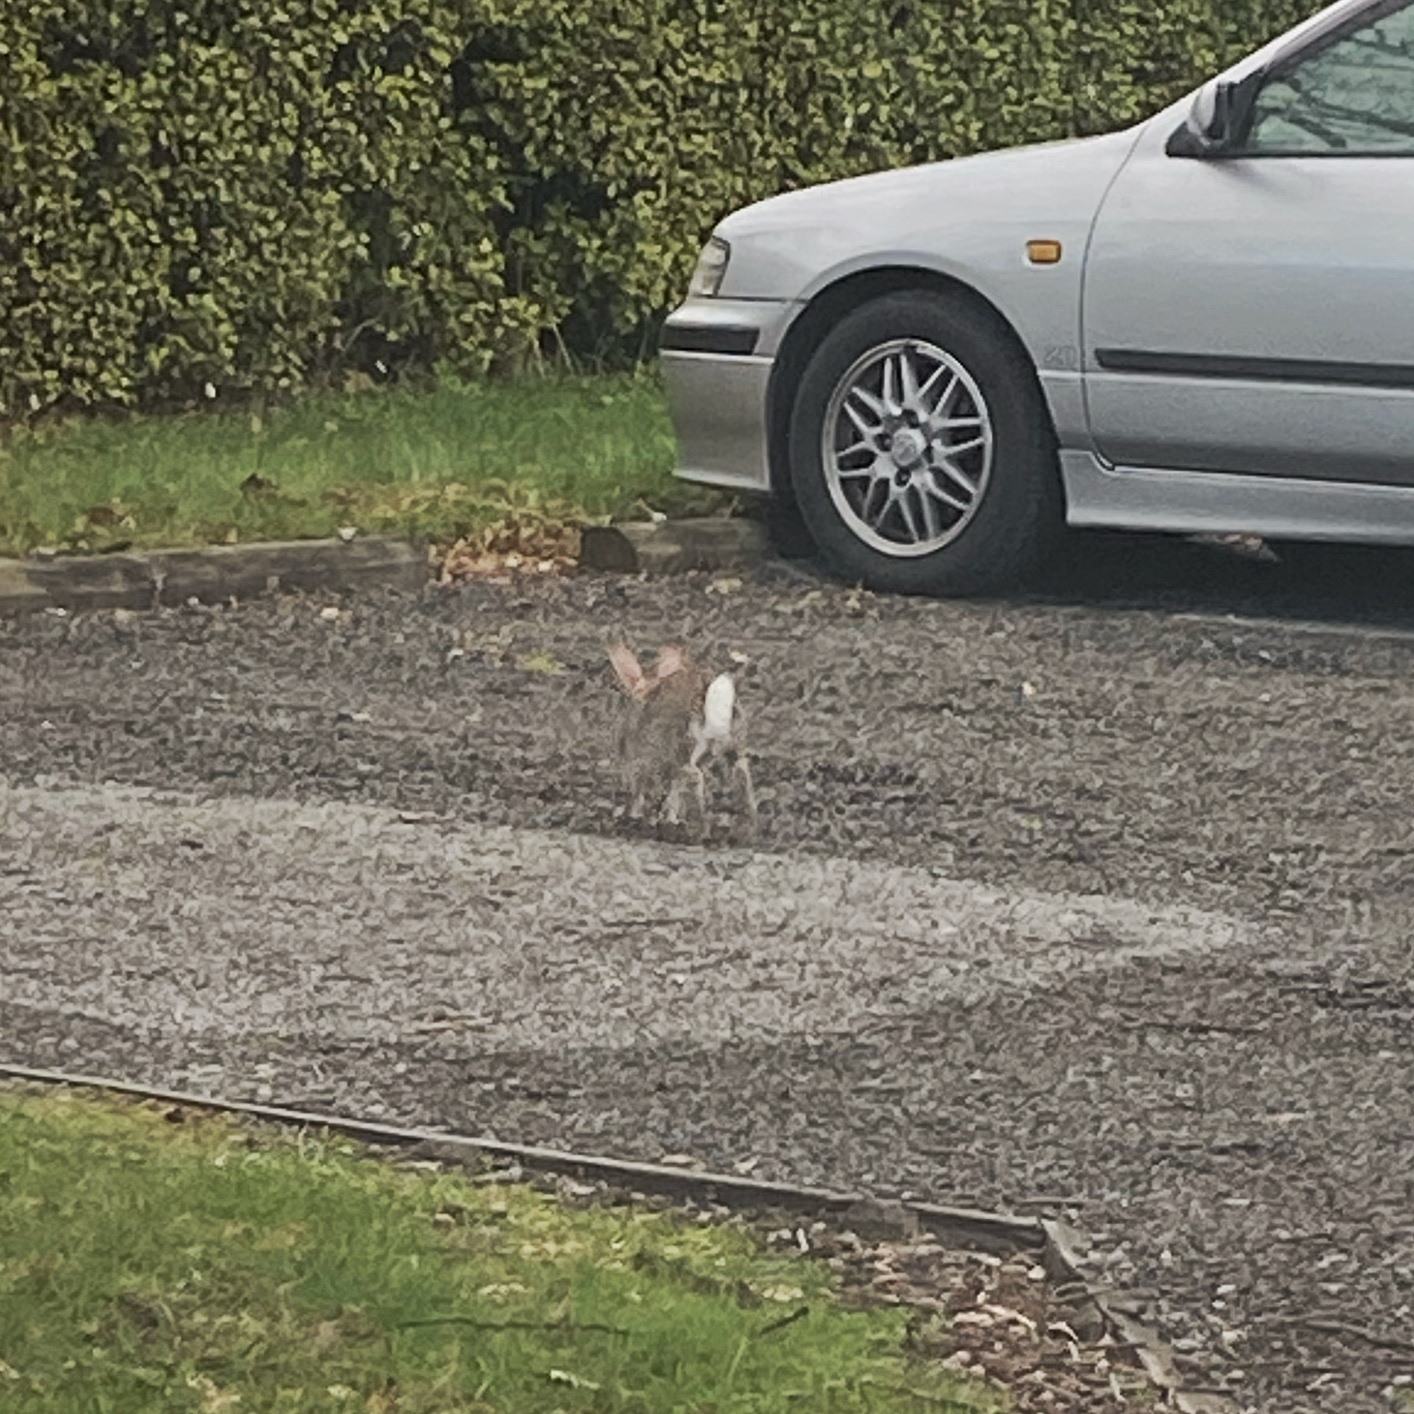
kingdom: Animalia
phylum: Chordata
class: Mammalia
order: Lagomorpha
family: Leporidae
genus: Oryctolagus
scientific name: Oryctolagus cuniculus
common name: European rabbit
